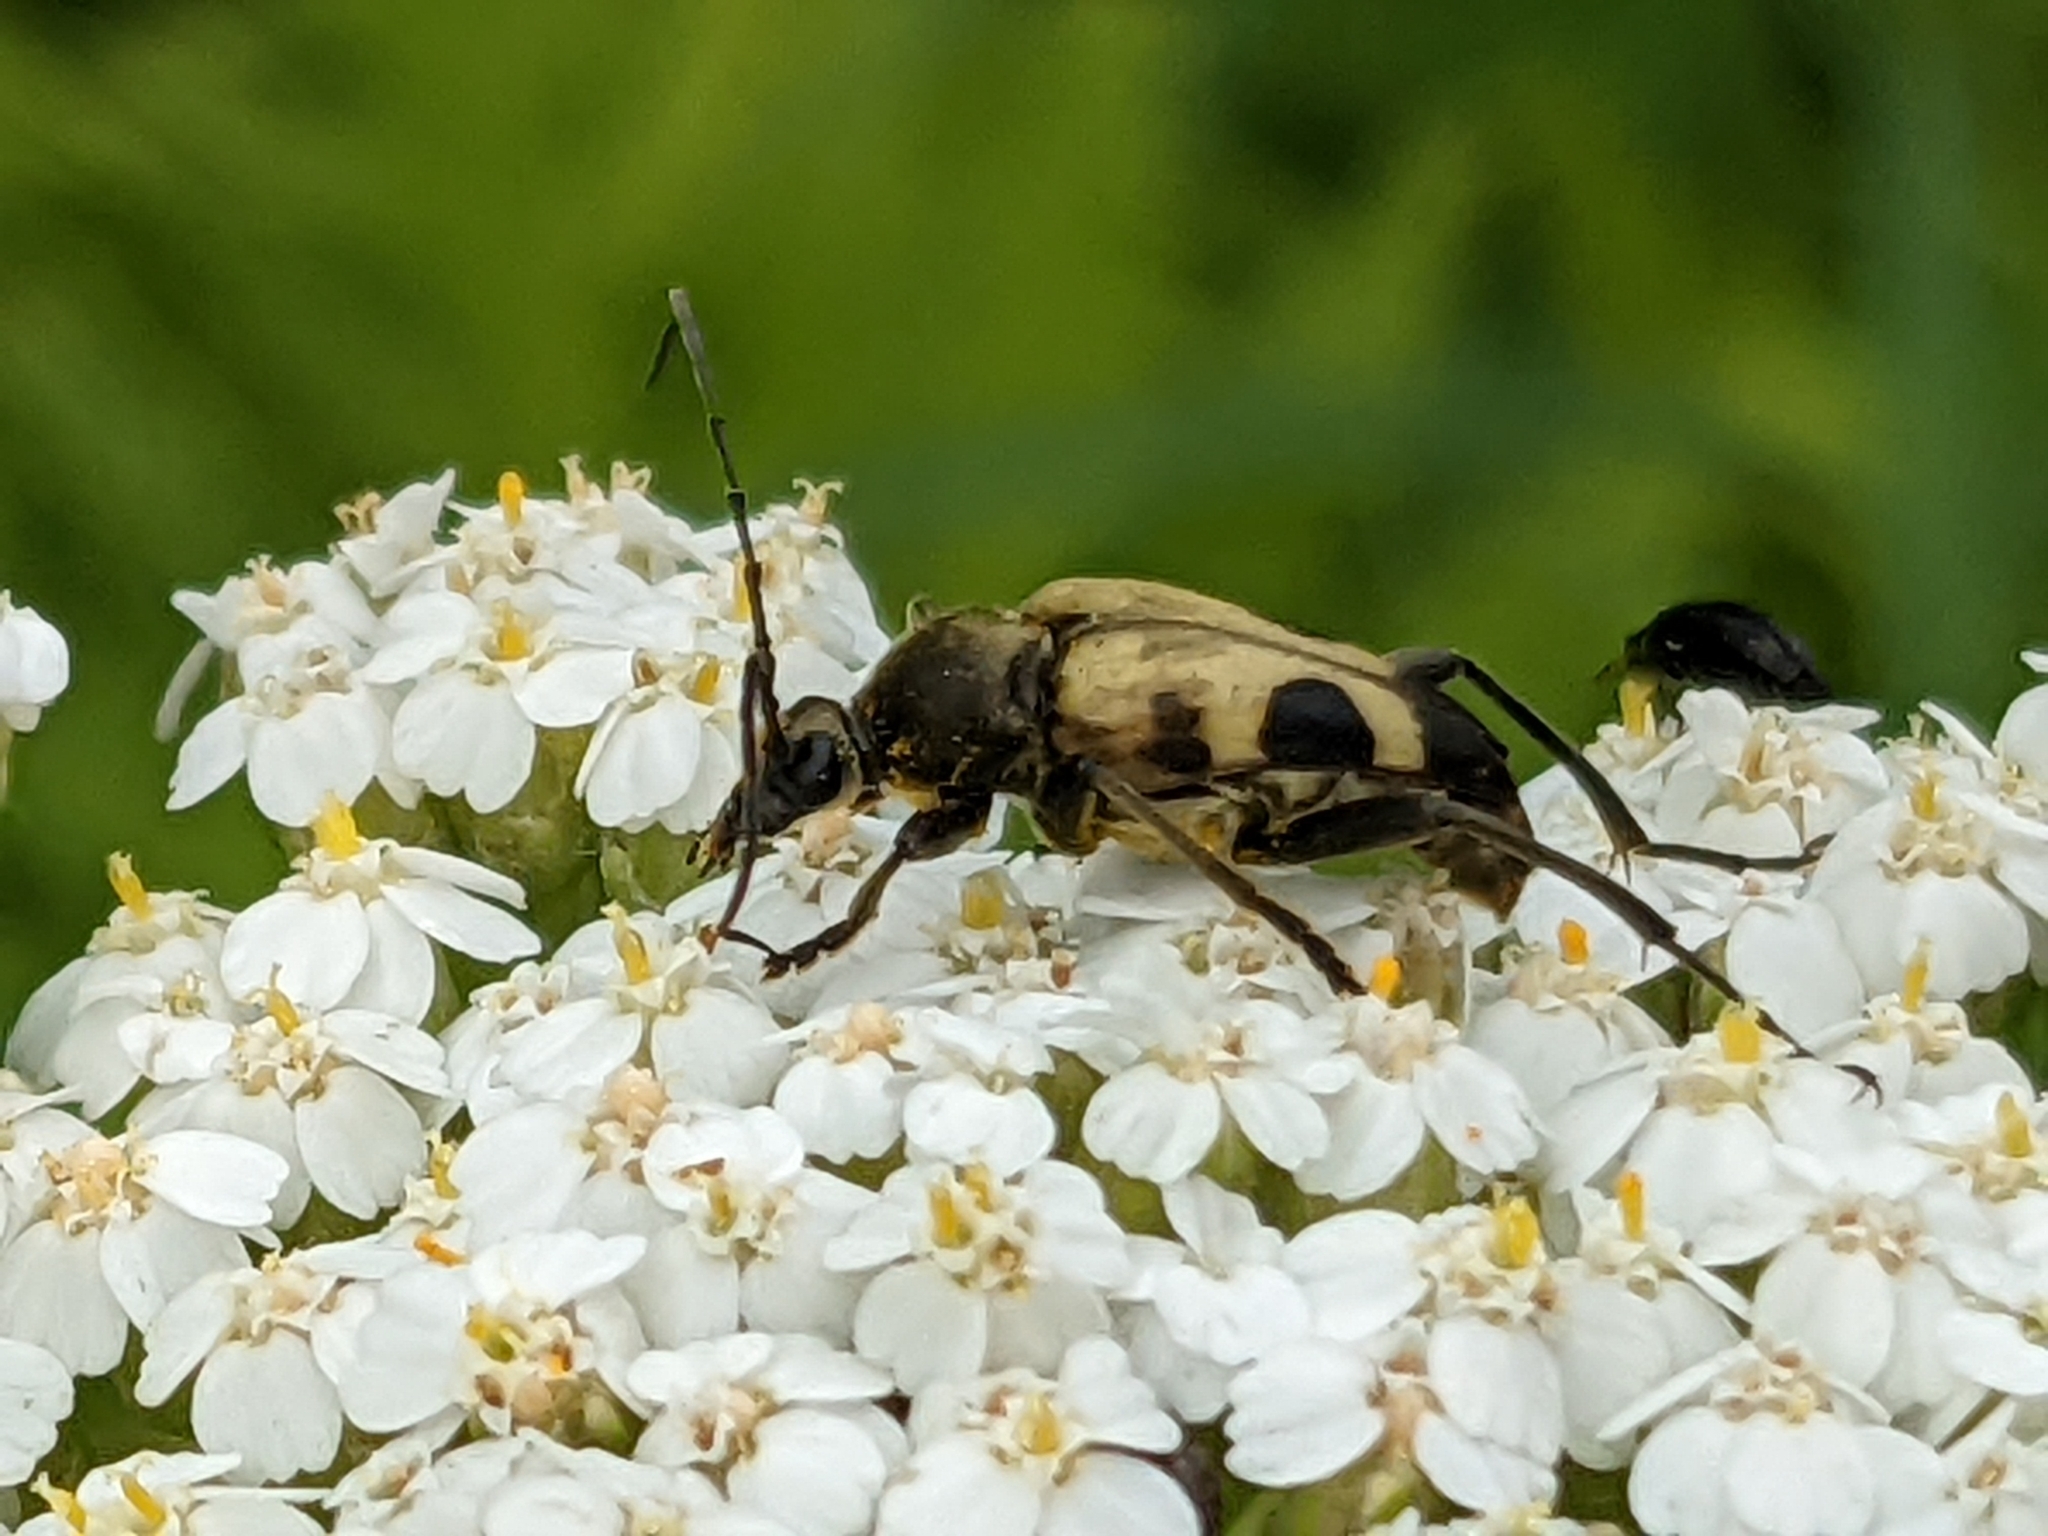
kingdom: Animalia
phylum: Arthropoda
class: Insecta
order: Coleoptera
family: Cerambycidae
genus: Judolia
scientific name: Judolia cordifera
